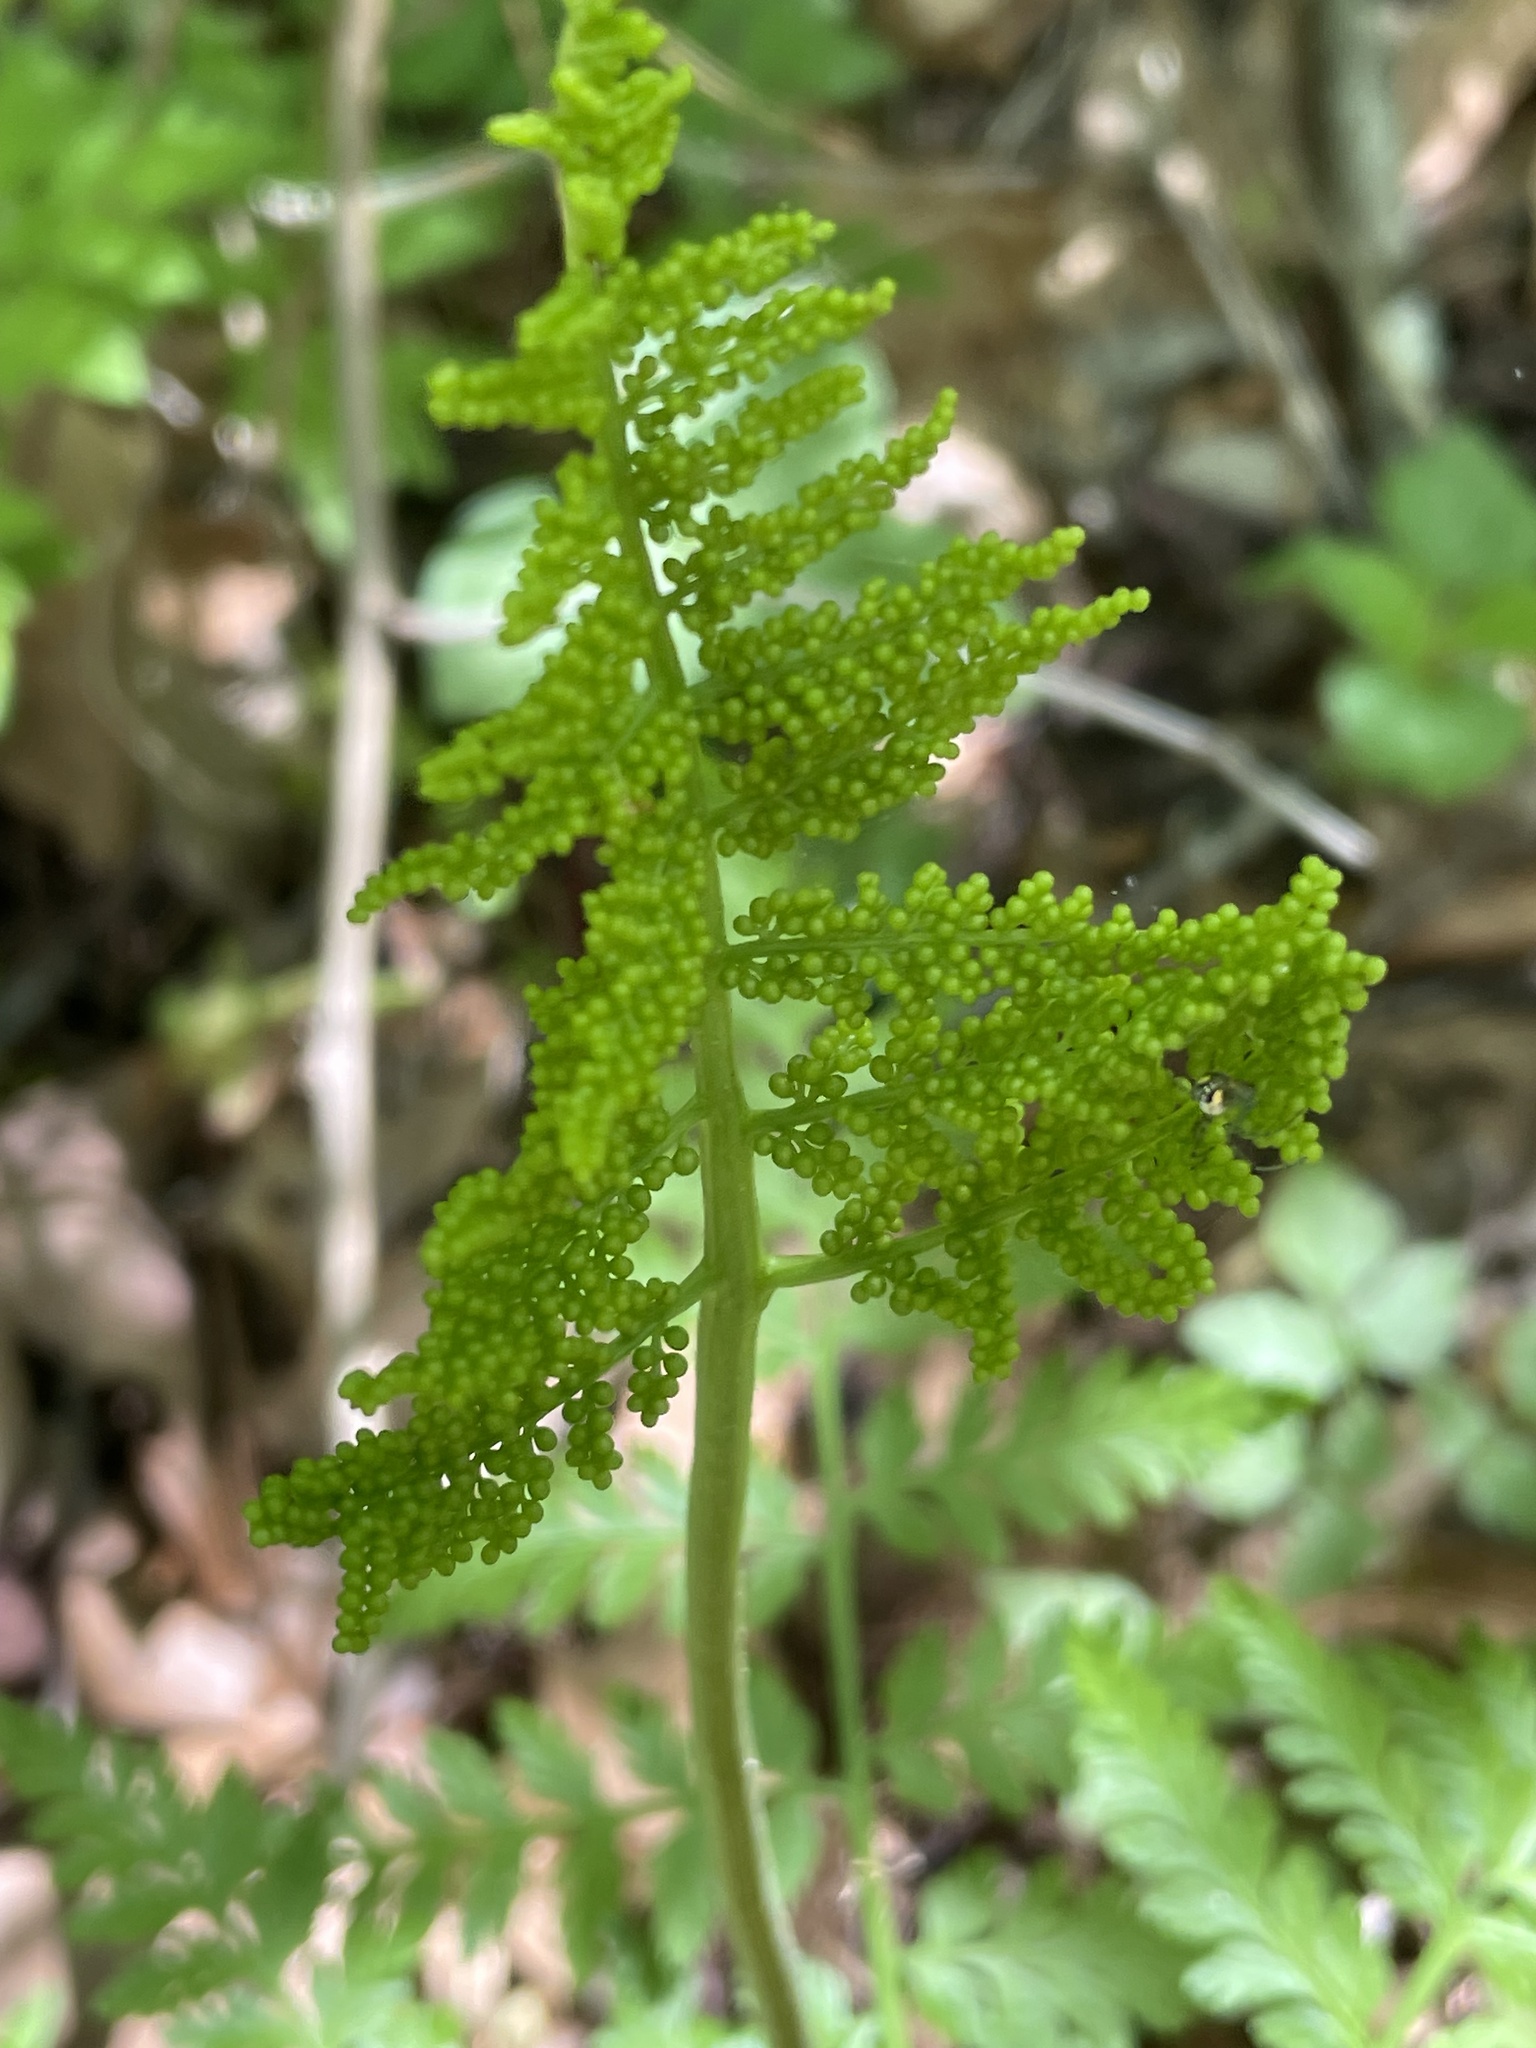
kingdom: Plantae
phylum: Tracheophyta
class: Polypodiopsida
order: Ophioglossales
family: Ophioglossaceae
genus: Botrypus
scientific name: Botrypus virginianus
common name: Common grapefern
